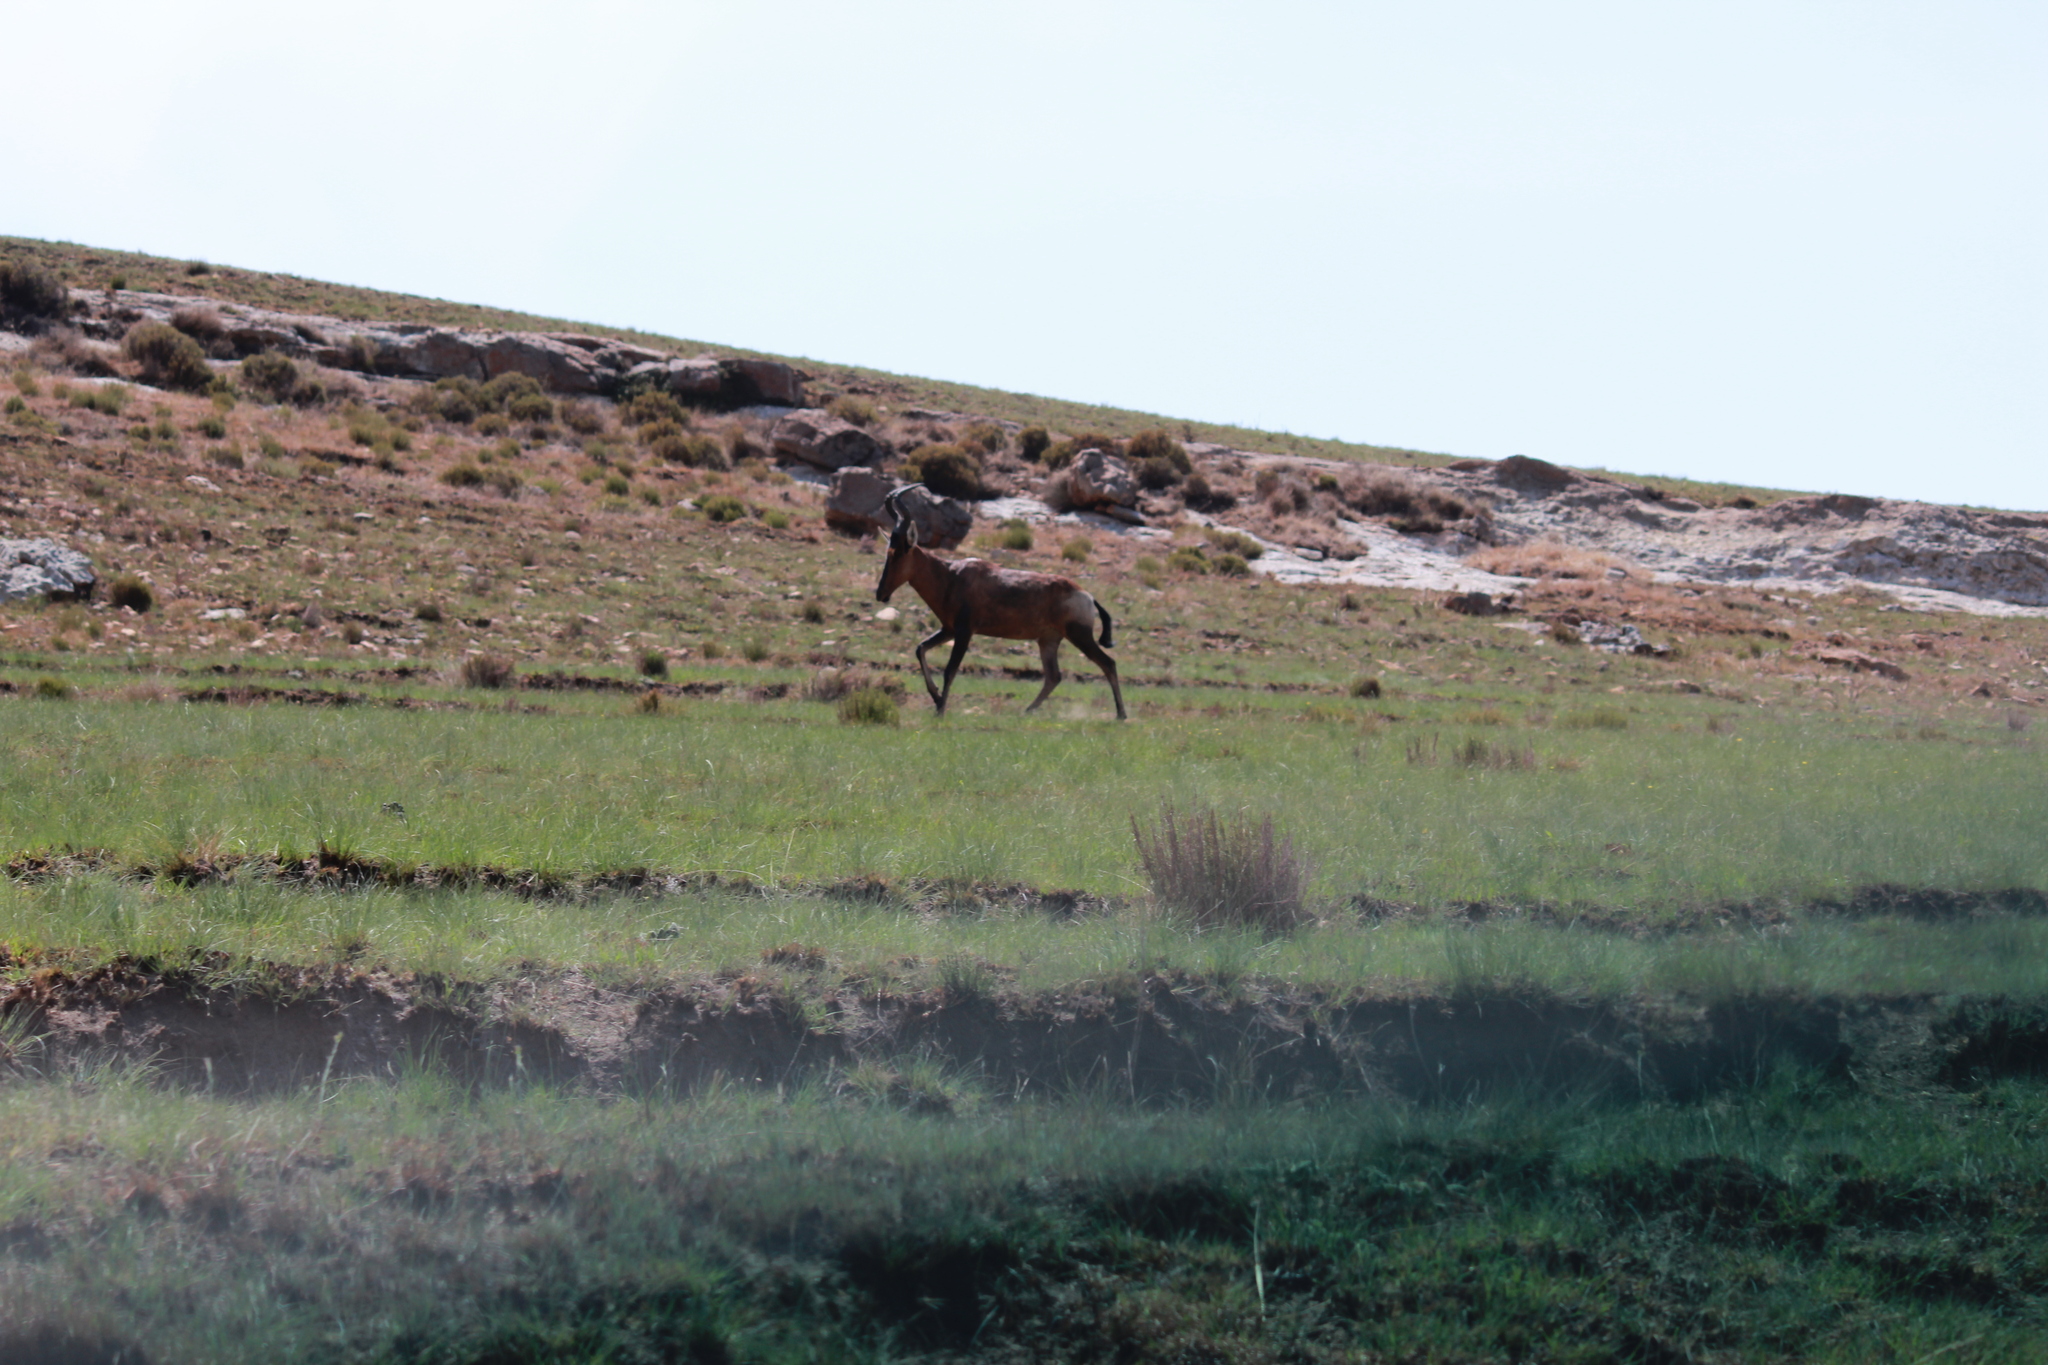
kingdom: Animalia
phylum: Chordata
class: Mammalia
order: Artiodactyla
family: Bovidae
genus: Alcelaphus
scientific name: Alcelaphus caama
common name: Red hartebeest
